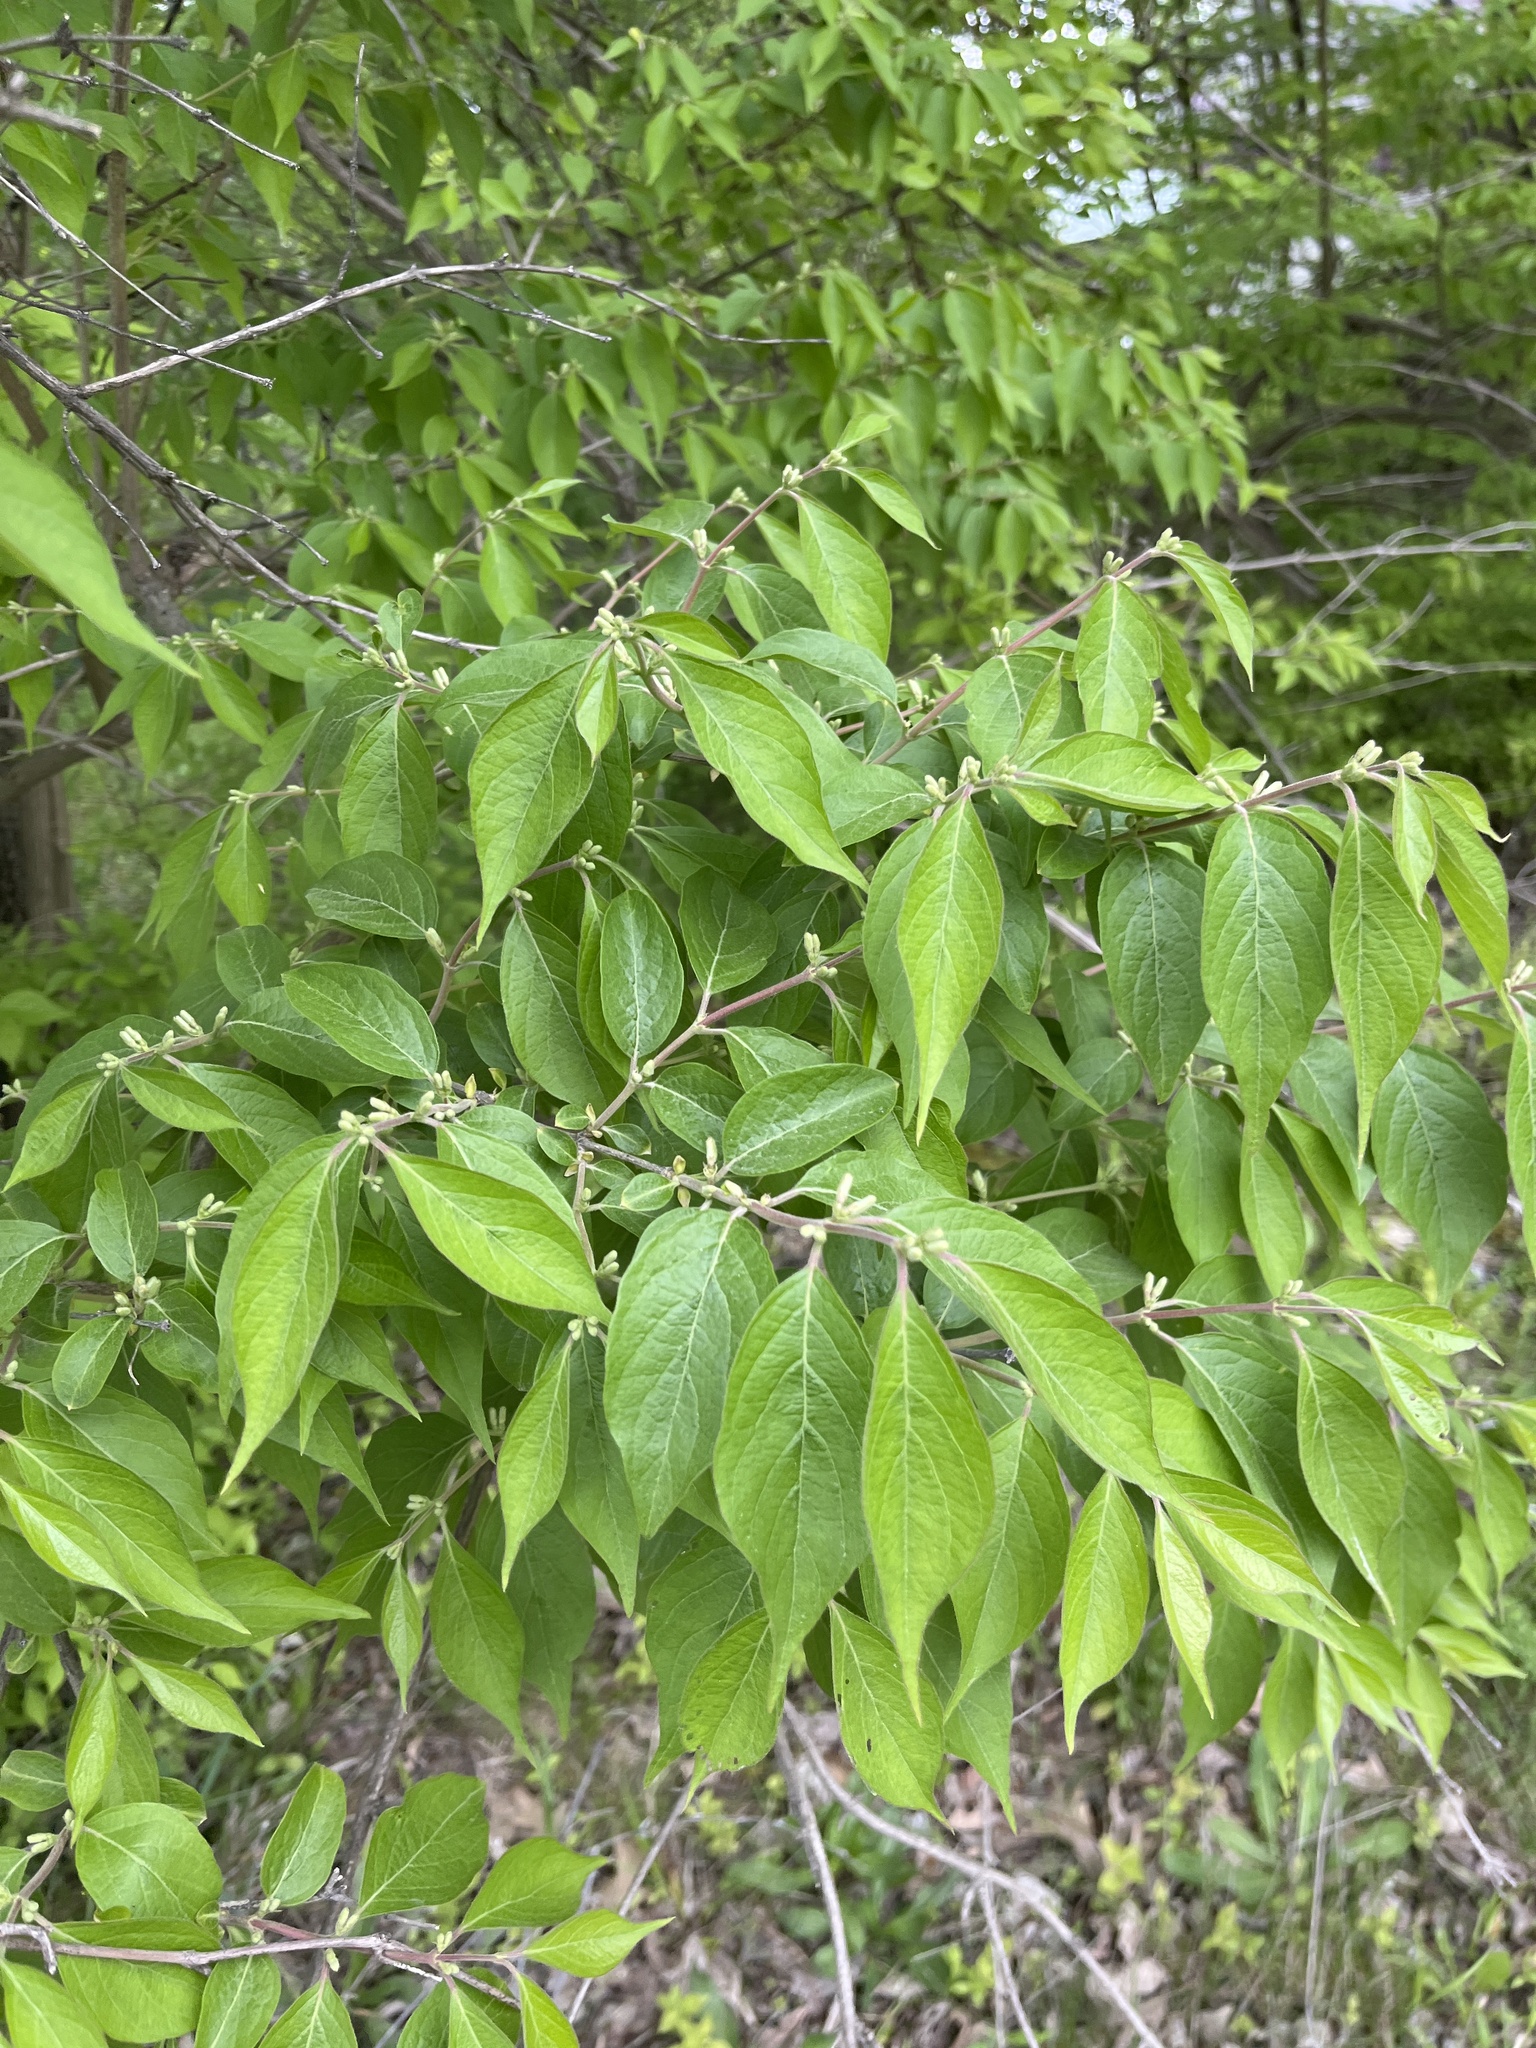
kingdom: Plantae
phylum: Tracheophyta
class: Magnoliopsida
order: Dipsacales
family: Caprifoliaceae
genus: Lonicera
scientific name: Lonicera maackii
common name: Amur honeysuckle
